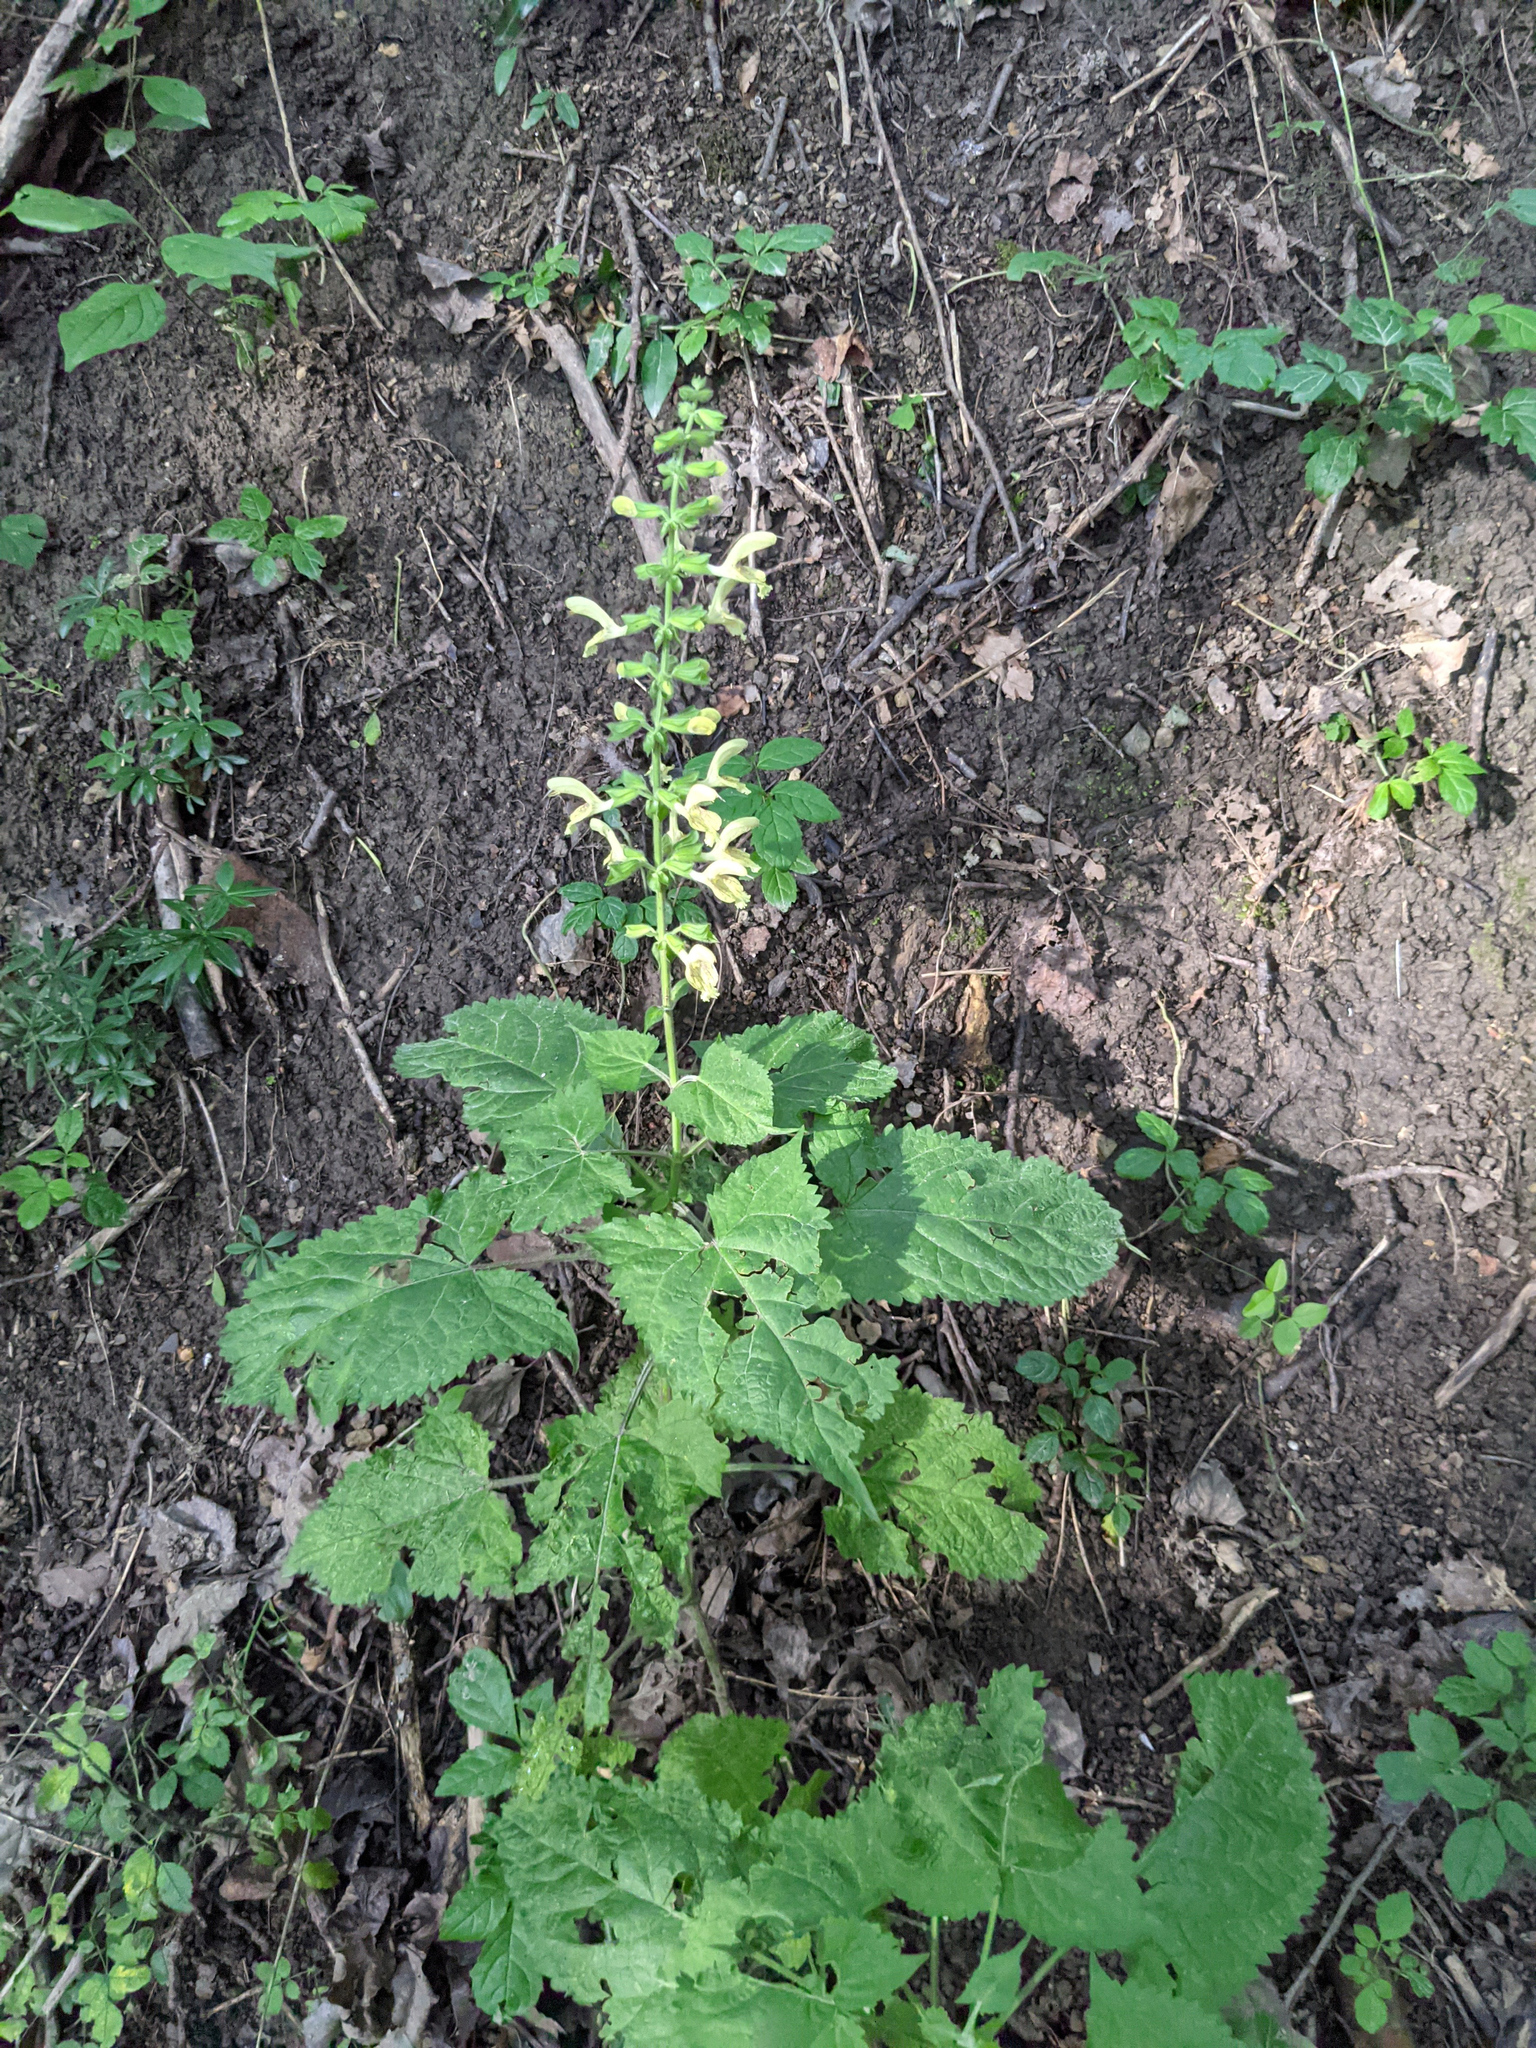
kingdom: Plantae
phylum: Tracheophyta
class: Magnoliopsida
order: Lamiales
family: Lamiaceae
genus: Salvia
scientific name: Salvia glutinosa
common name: Sticky clary
